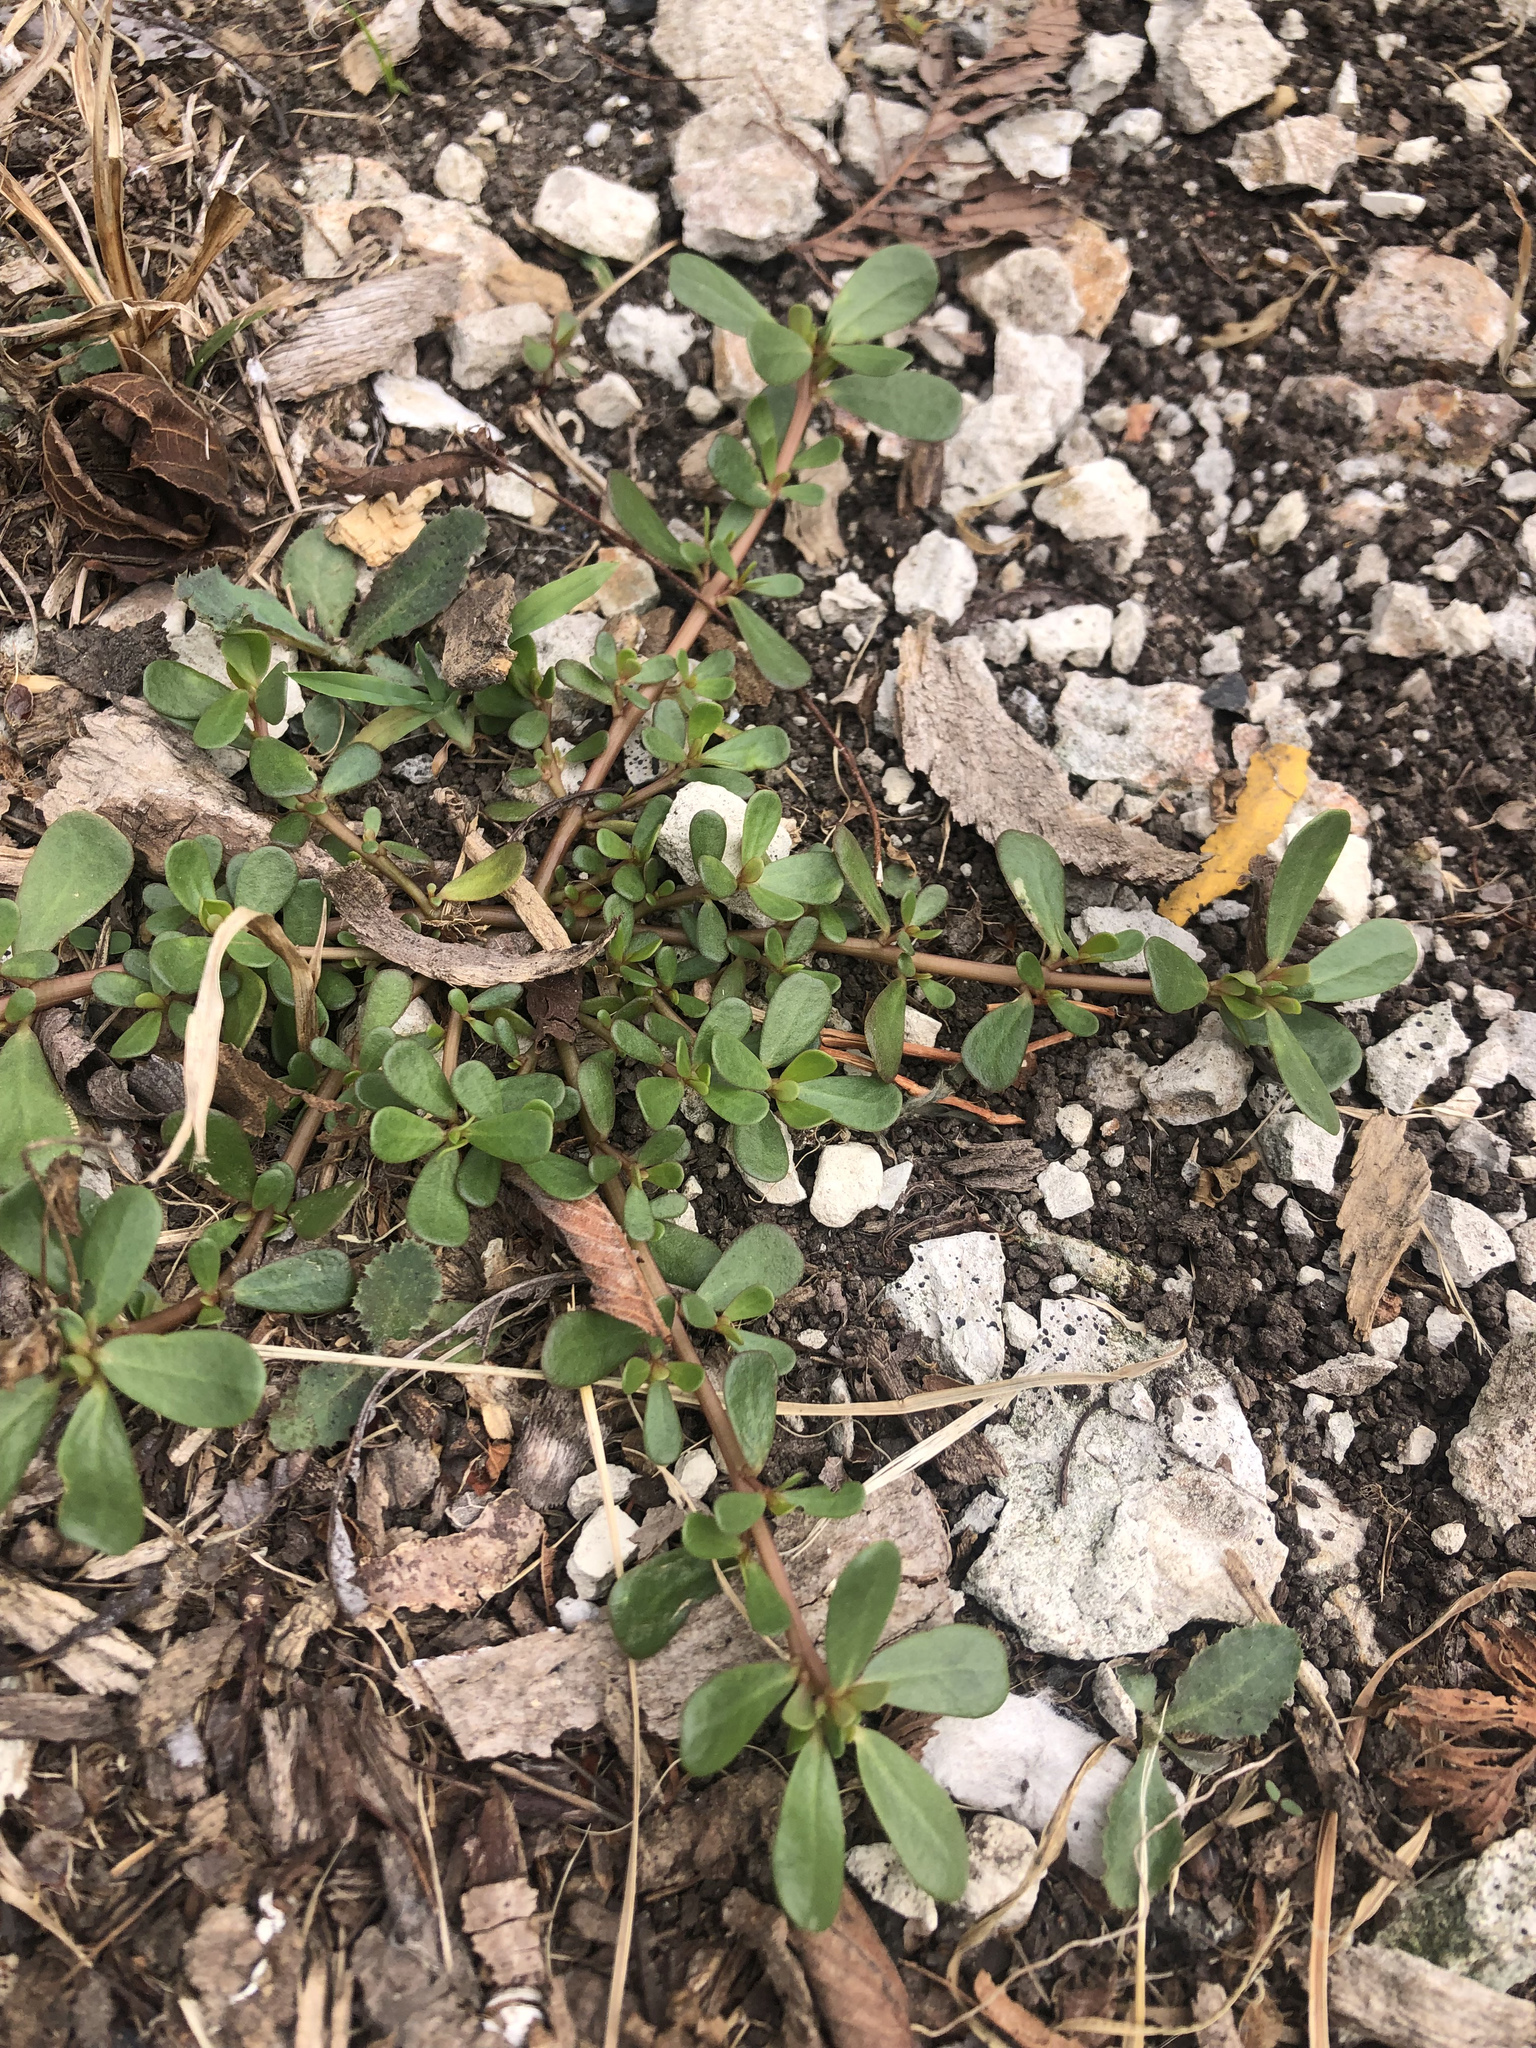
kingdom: Plantae
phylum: Tracheophyta
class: Magnoliopsida
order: Caryophyllales
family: Portulacaceae
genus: Portulaca
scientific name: Portulaca oleracea
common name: Common purslane
